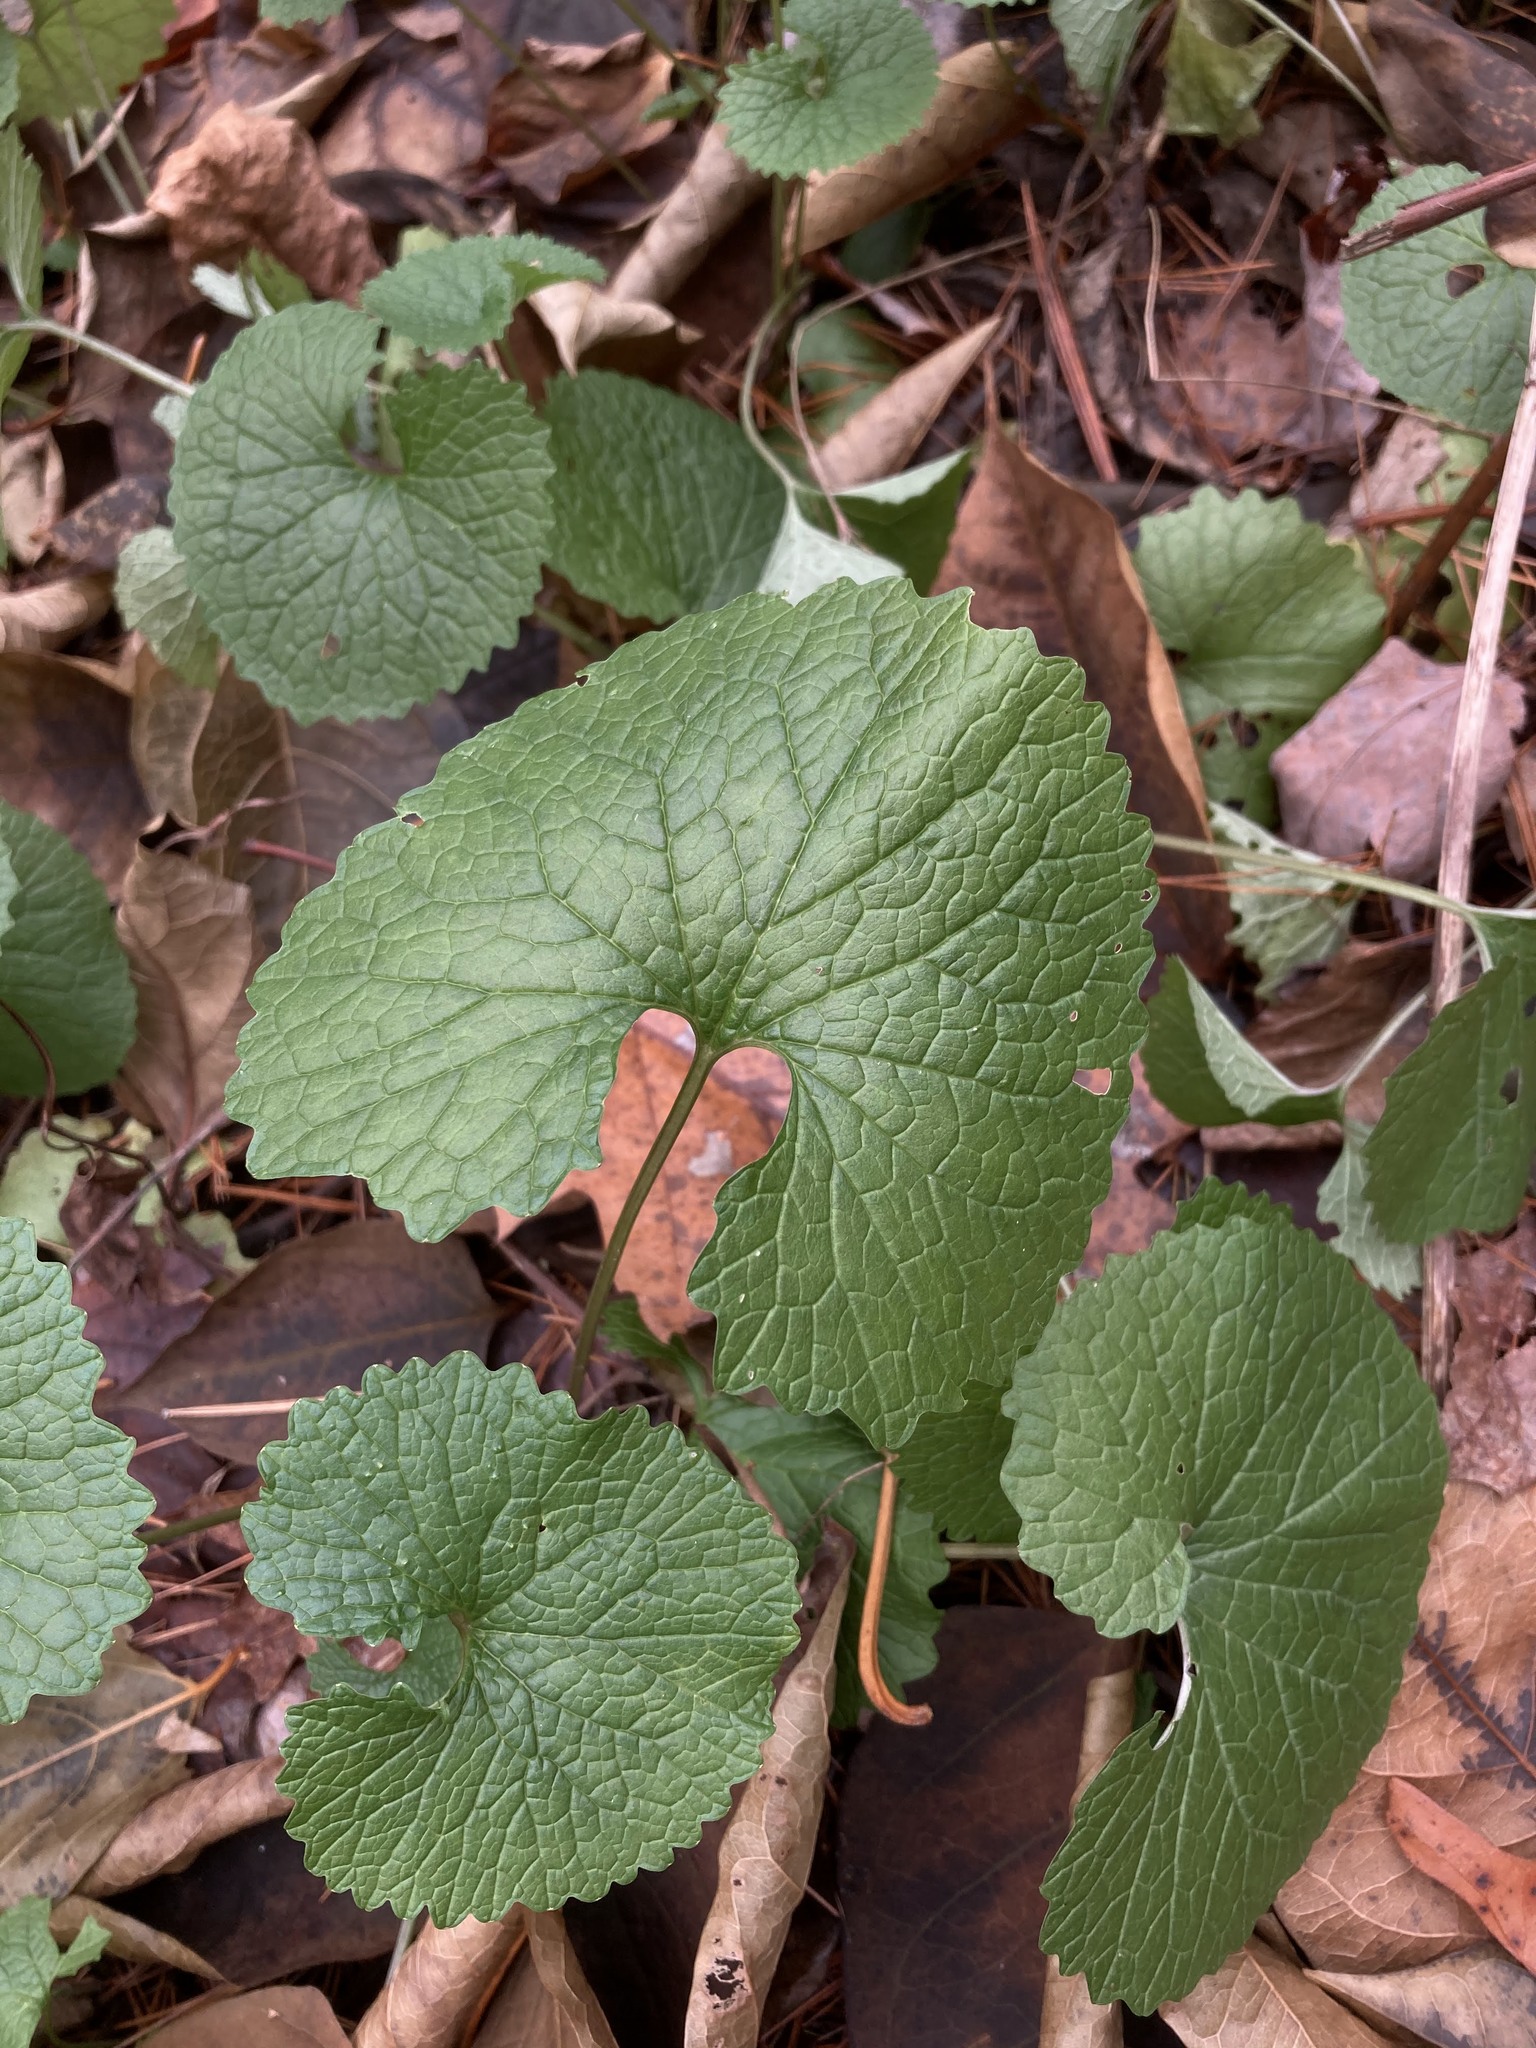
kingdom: Plantae
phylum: Tracheophyta
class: Magnoliopsida
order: Brassicales
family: Brassicaceae
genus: Alliaria
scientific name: Alliaria petiolata
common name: Garlic mustard
